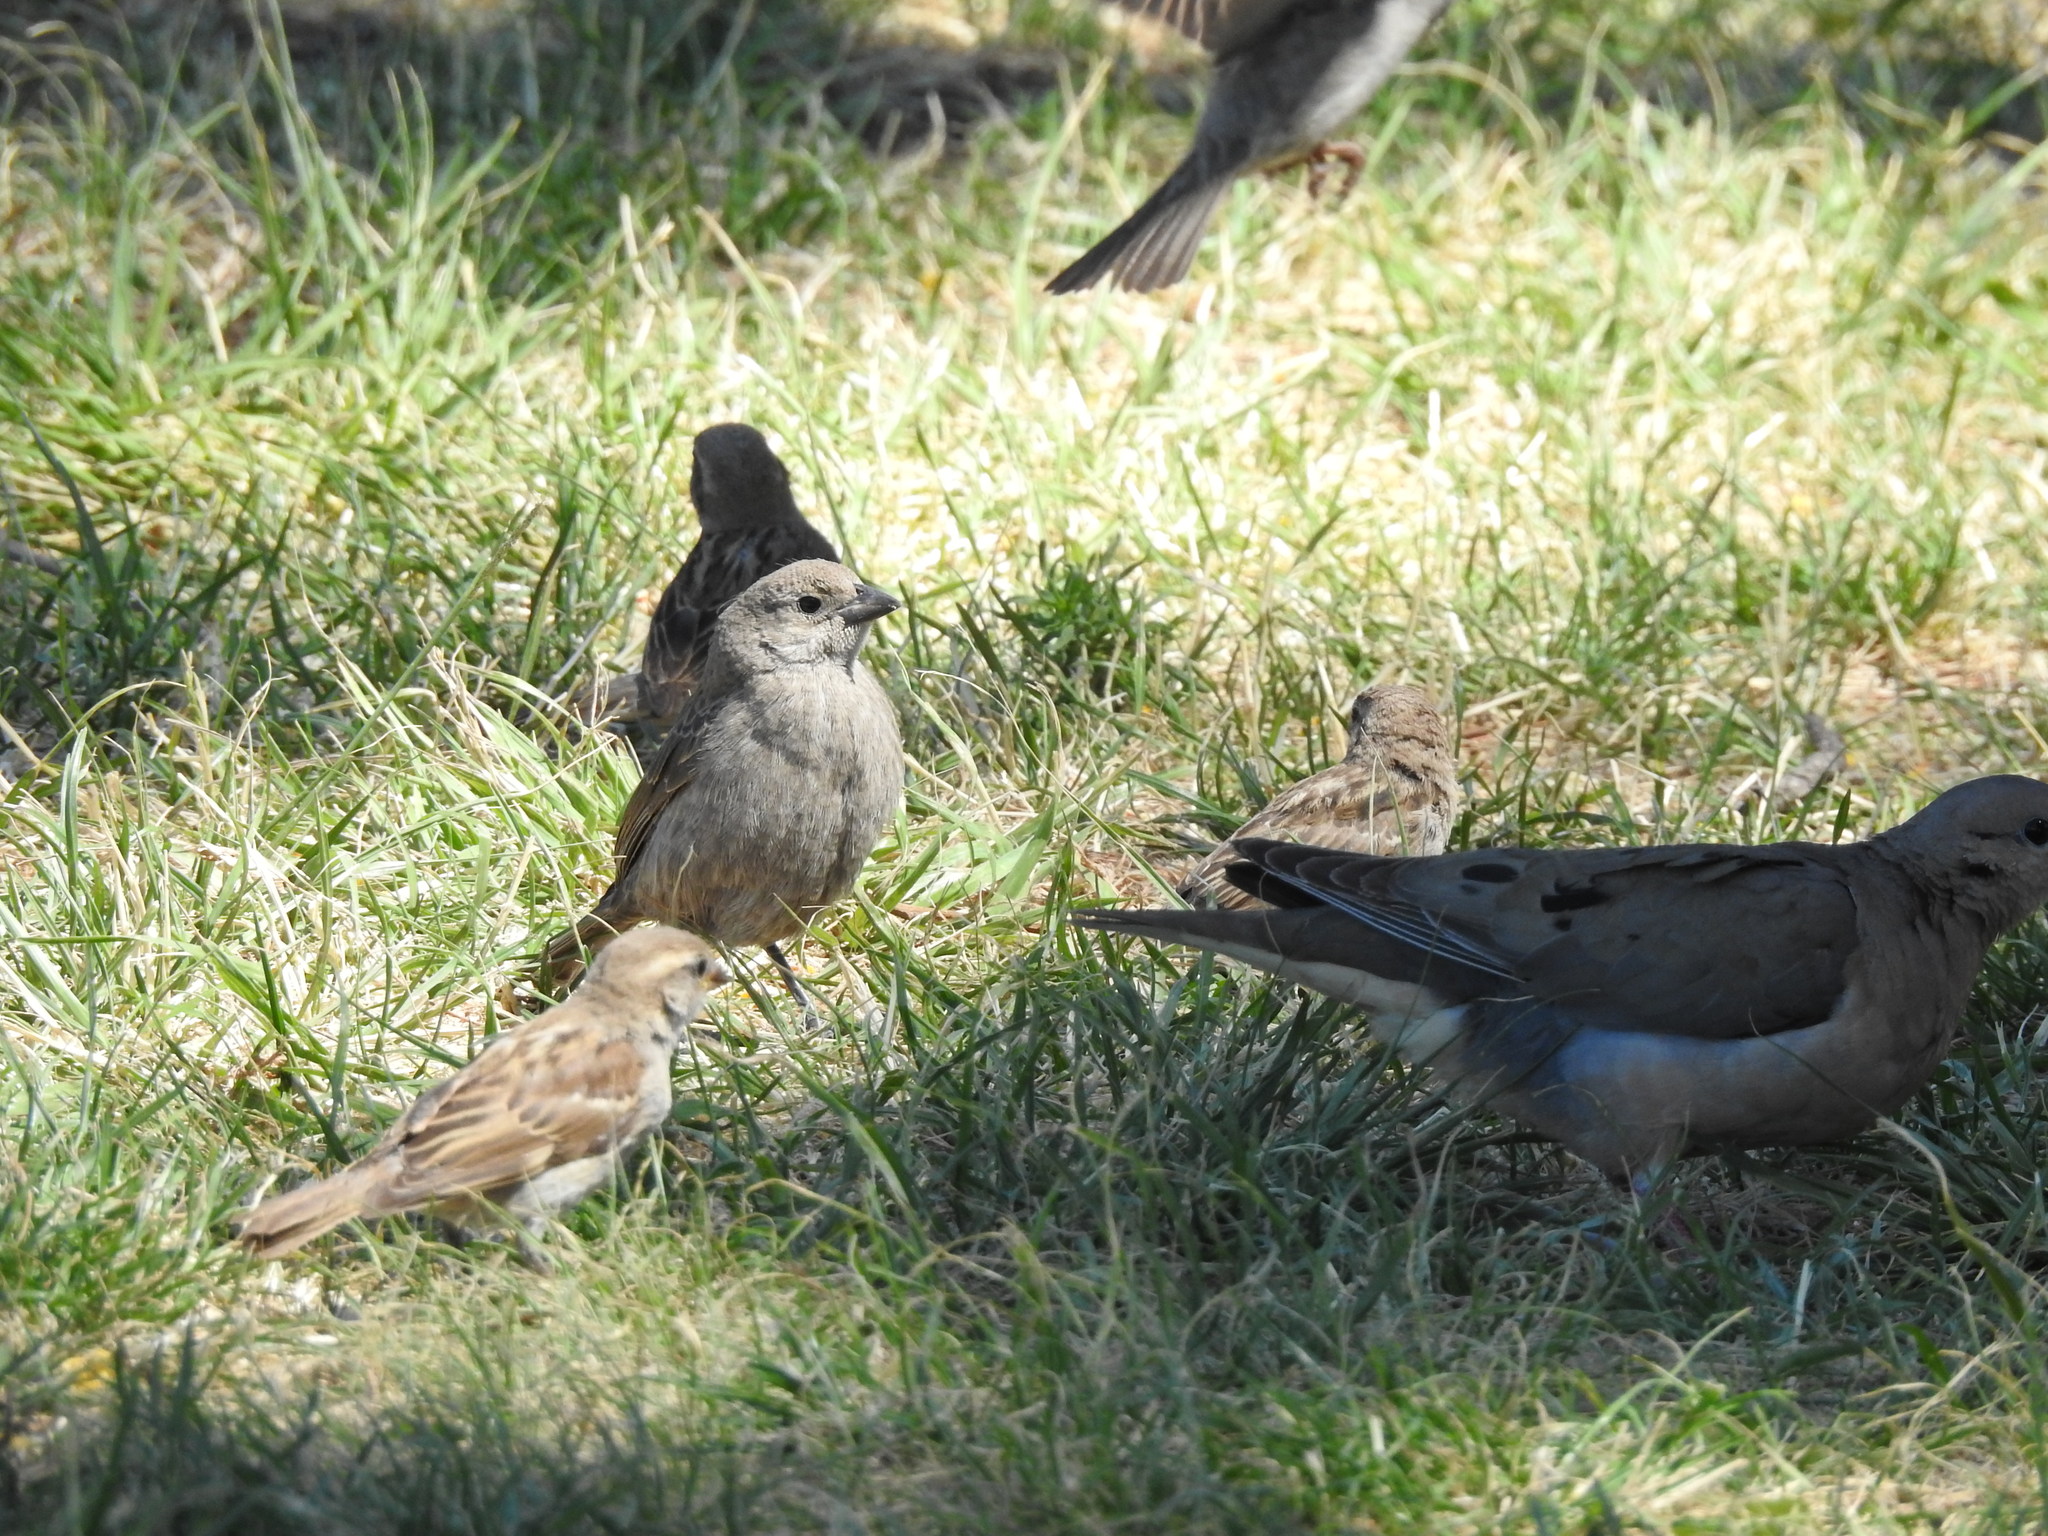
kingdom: Animalia
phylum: Chordata
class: Aves
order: Passeriformes
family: Passeridae
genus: Passer
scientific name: Passer domesticus
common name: House sparrow
